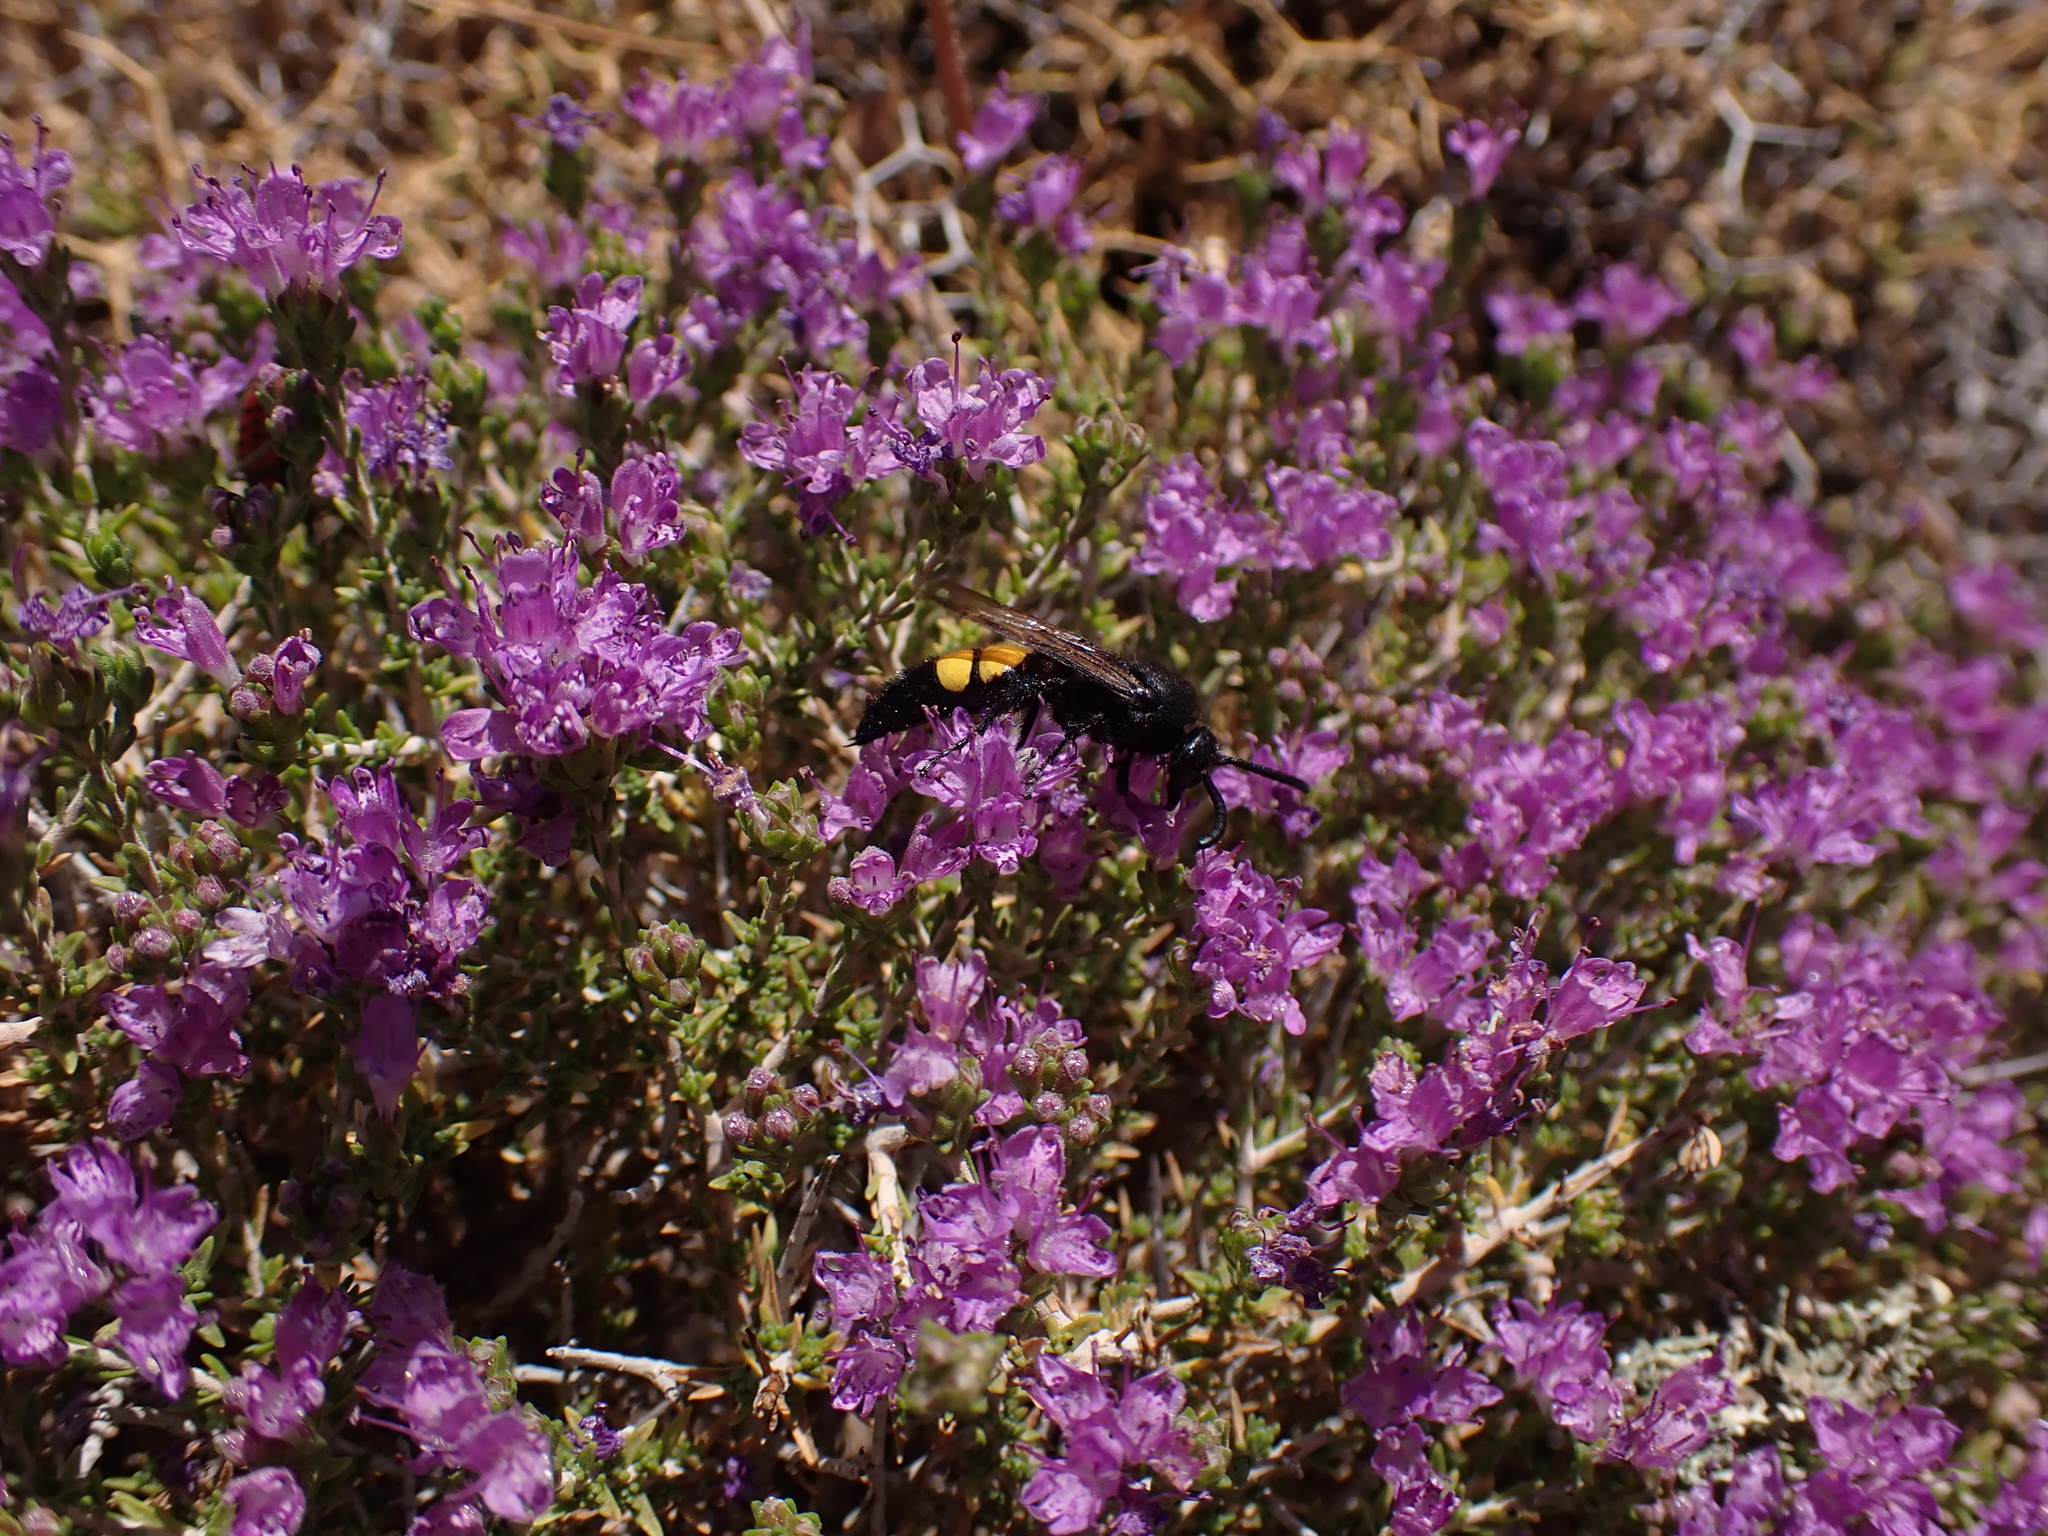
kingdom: Animalia
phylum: Arthropoda
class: Insecta
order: Hymenoptera
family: Scoliidae
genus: Scolia
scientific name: Scolia hirta
